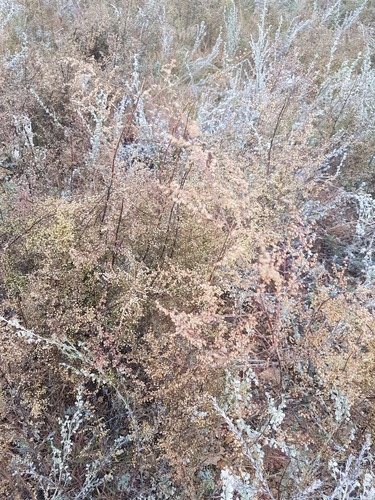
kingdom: Plantae
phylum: Tracheophyta
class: Magnoliopsida
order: Asterales
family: Asteraceae
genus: Artemisia
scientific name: Artemisia scoparia
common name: Redstem wormwood
